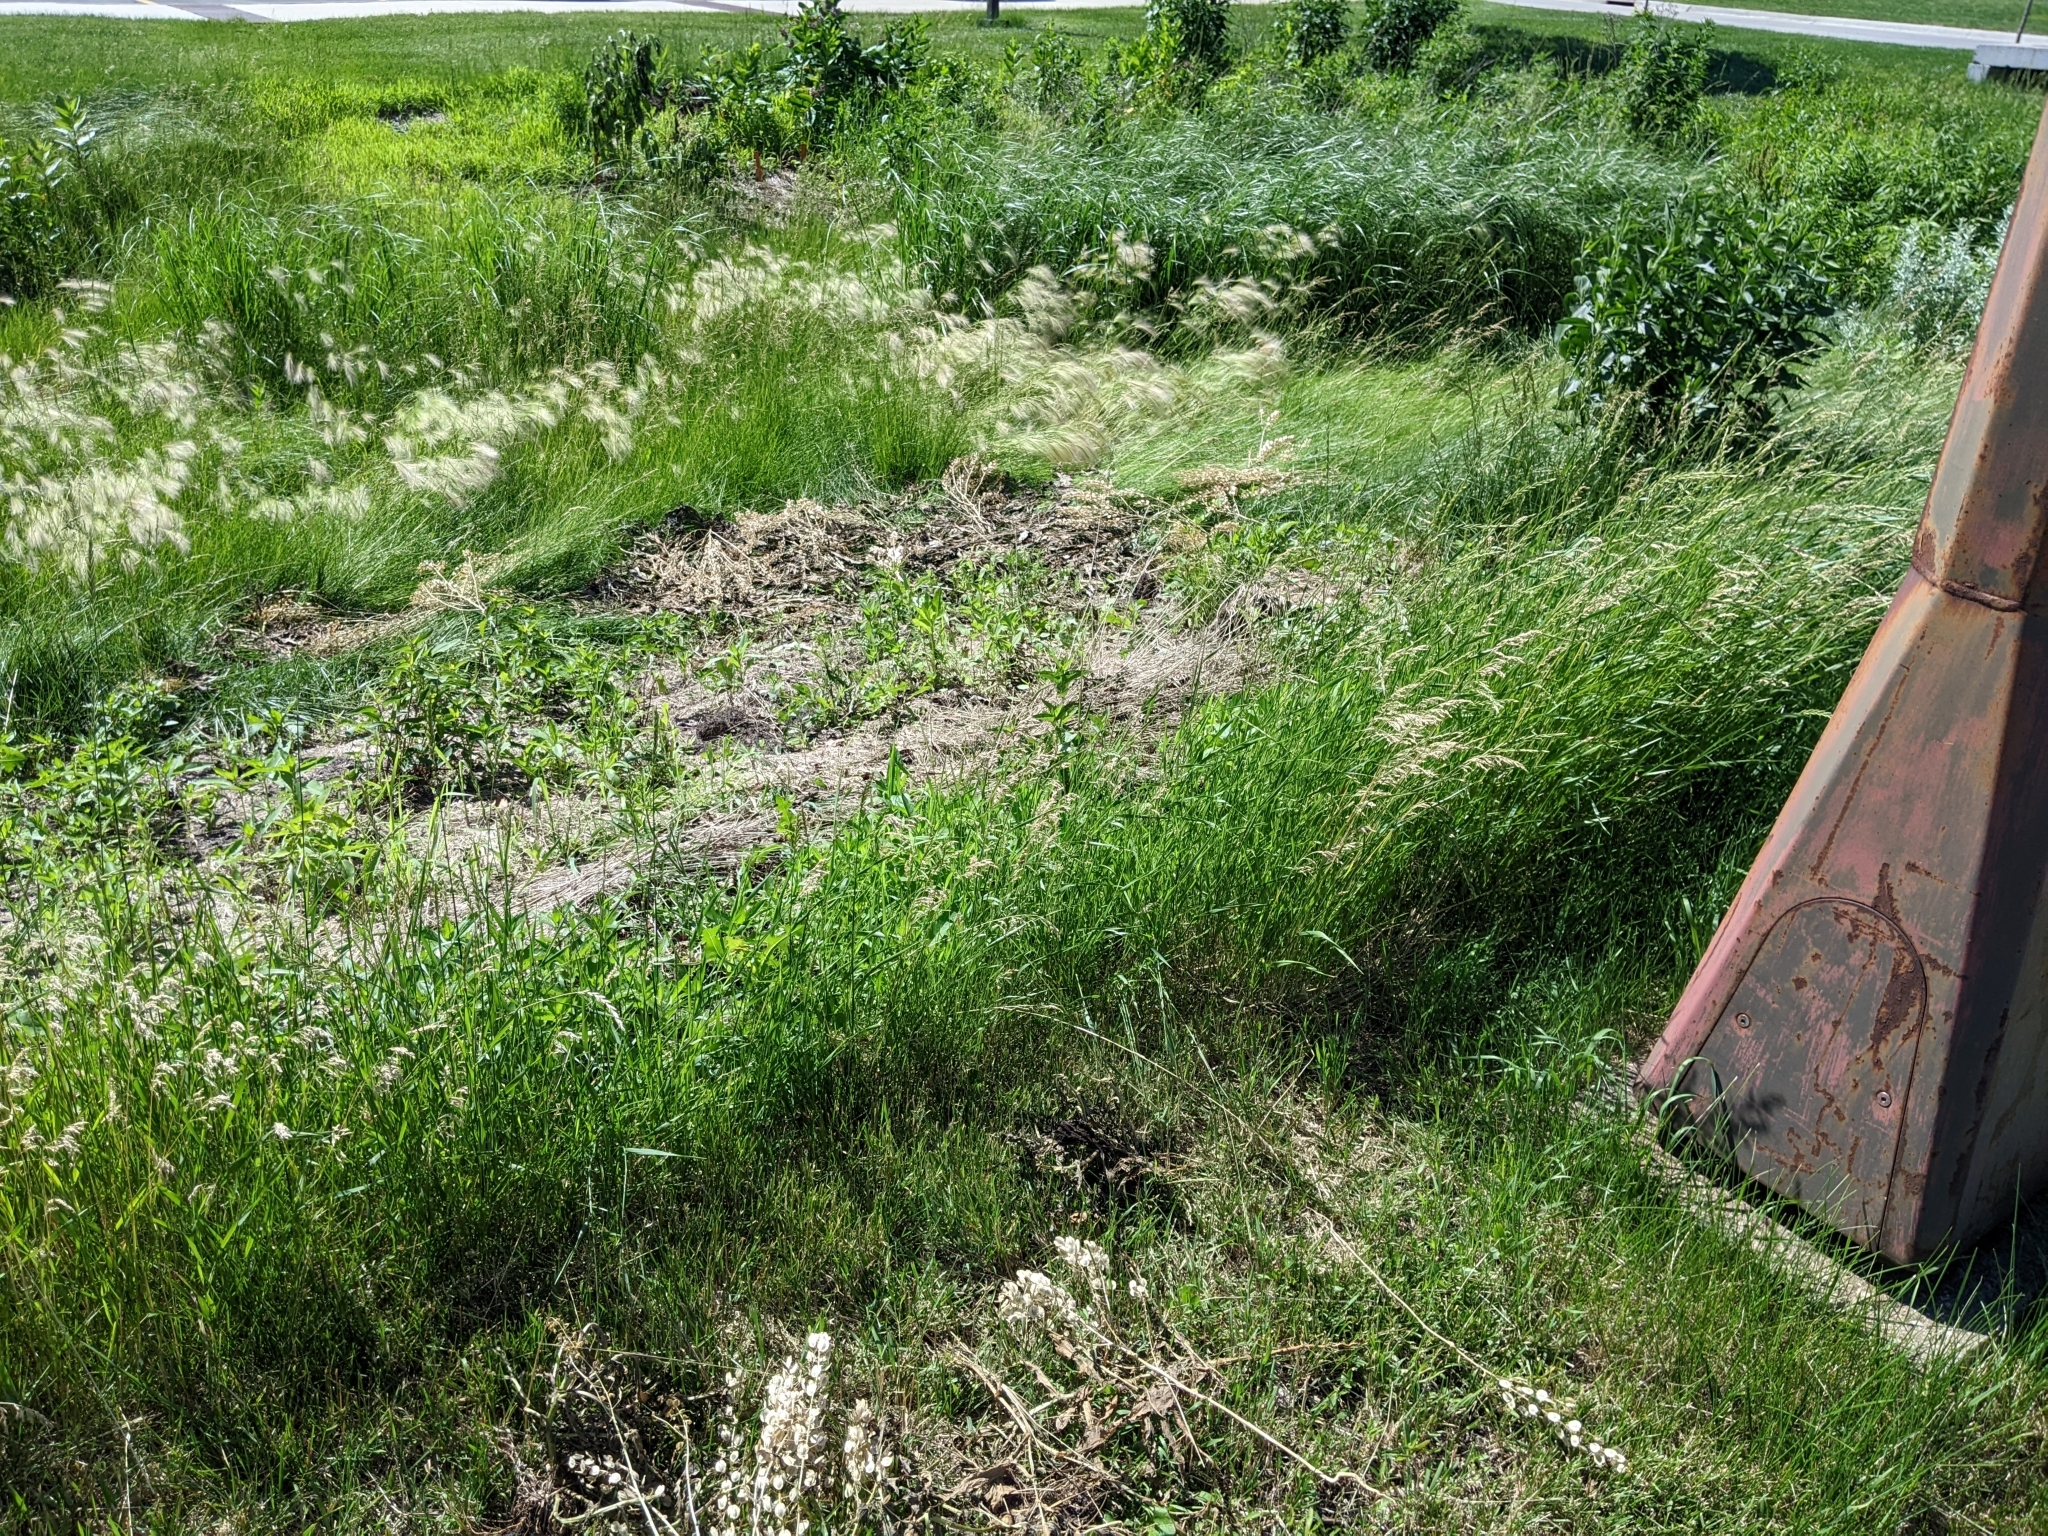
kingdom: Plantae
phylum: Tracheophyta
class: Magnoliopsida
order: Brassicales
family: Brassicaceae
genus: Thlaspi
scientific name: Thlaspi arvense
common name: Field pennycress
